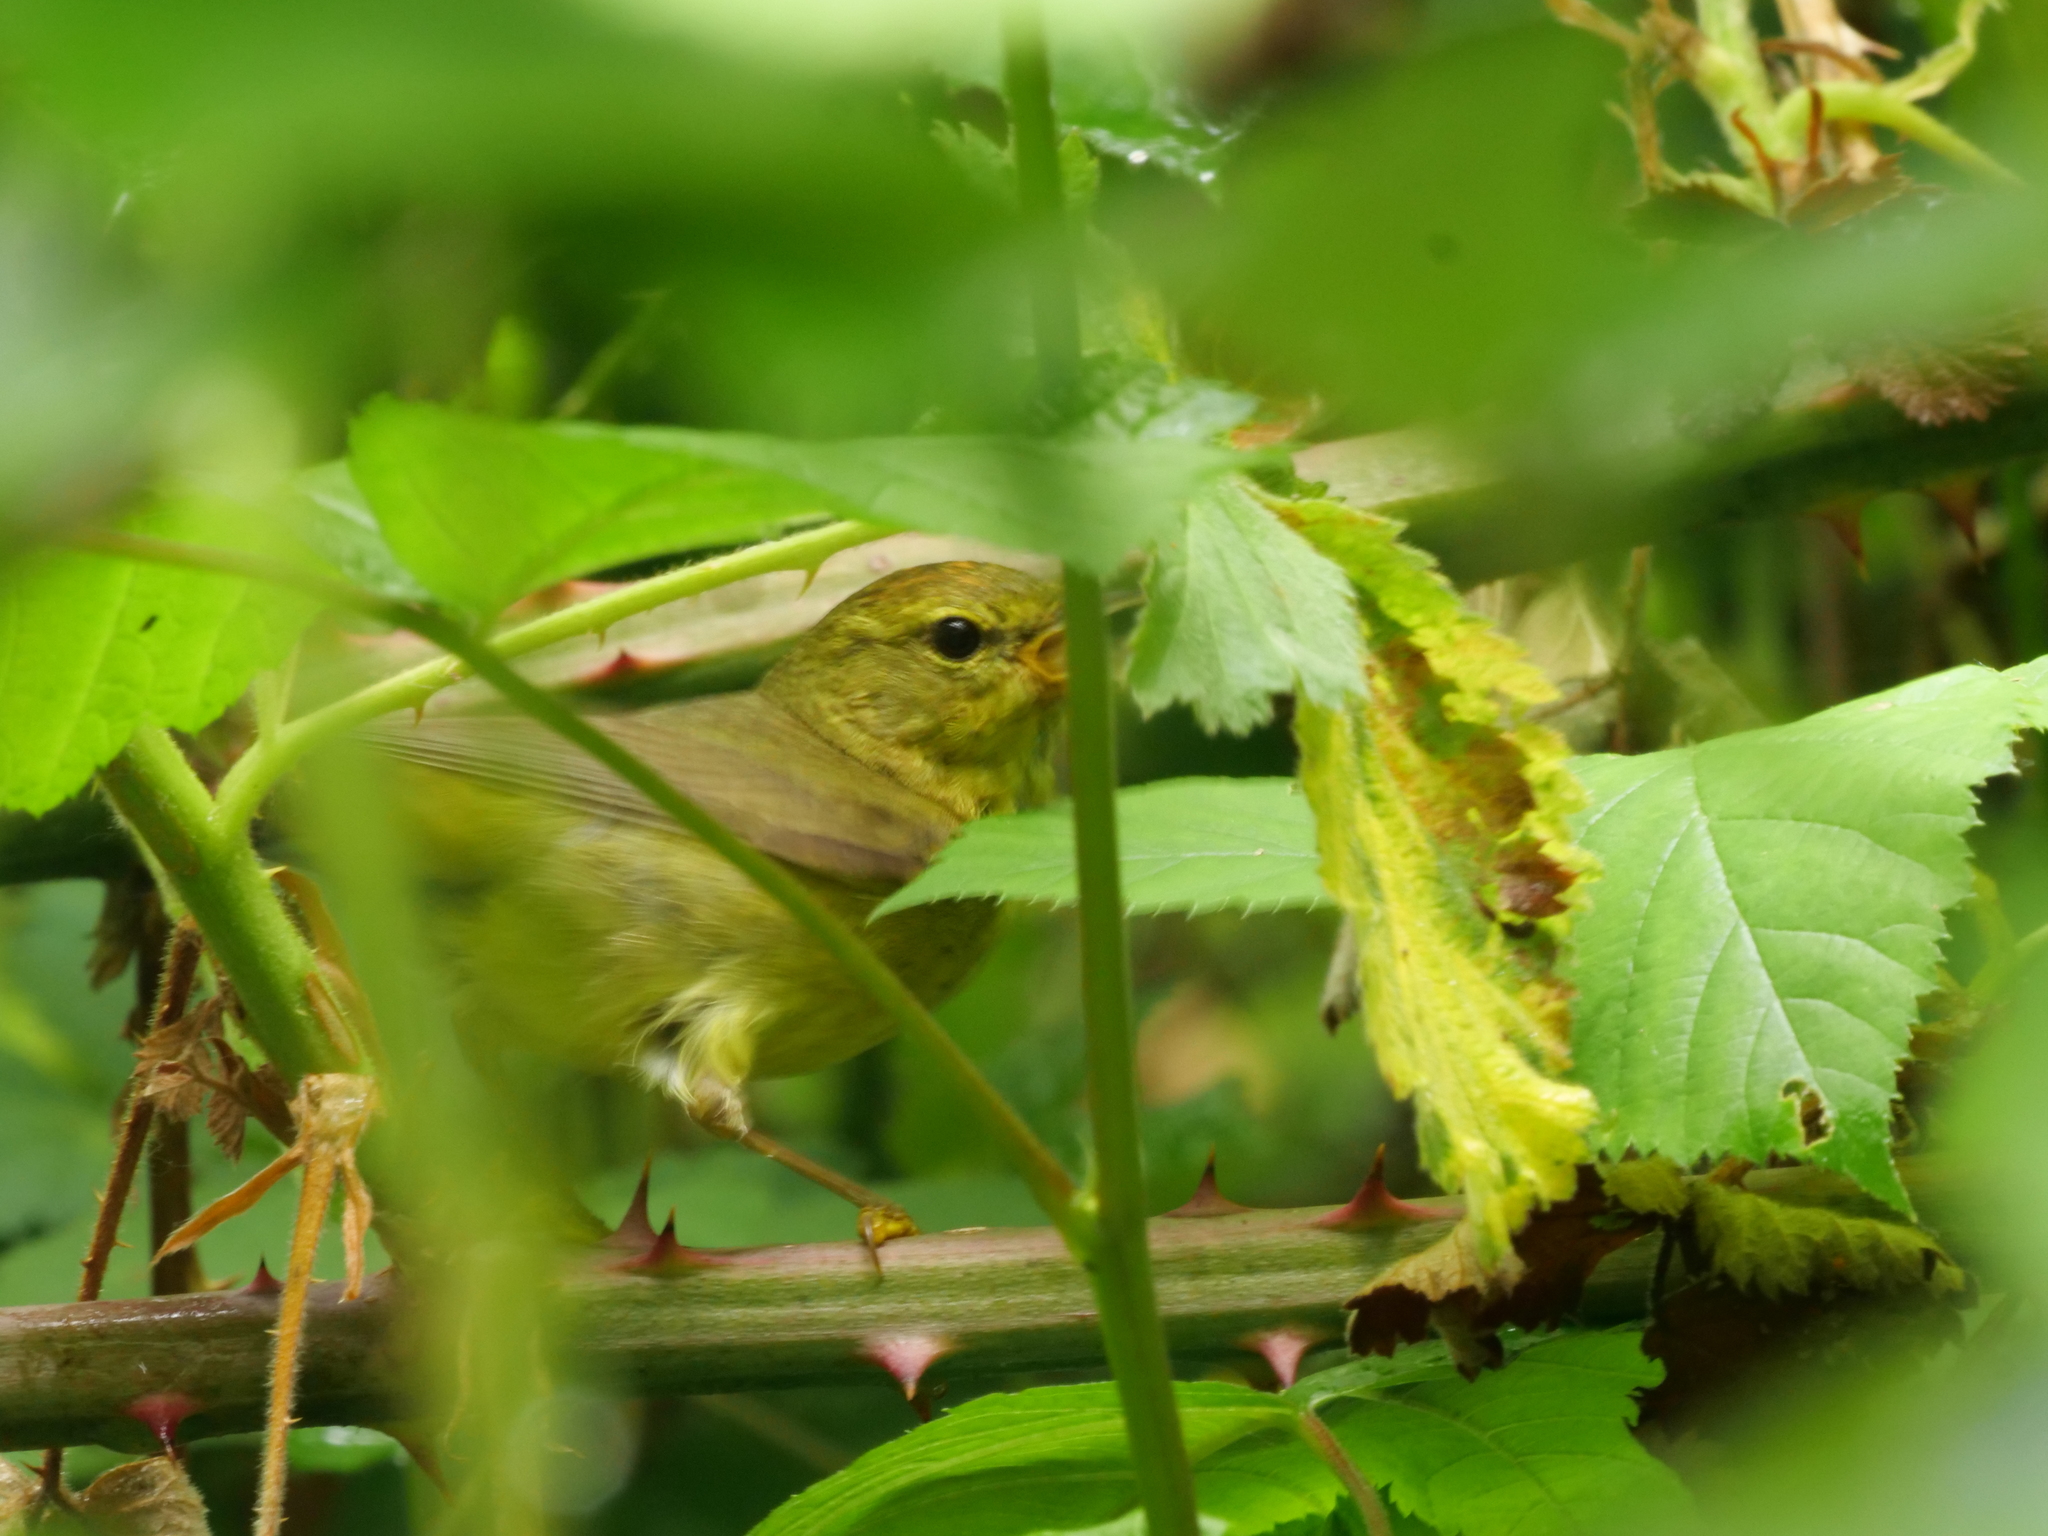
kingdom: Animalia
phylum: Chordata
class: Aves
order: Passeriformes
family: Parulidae
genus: Leiothlypis
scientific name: Leiothlypis celata
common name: Orange-crowned warbler
